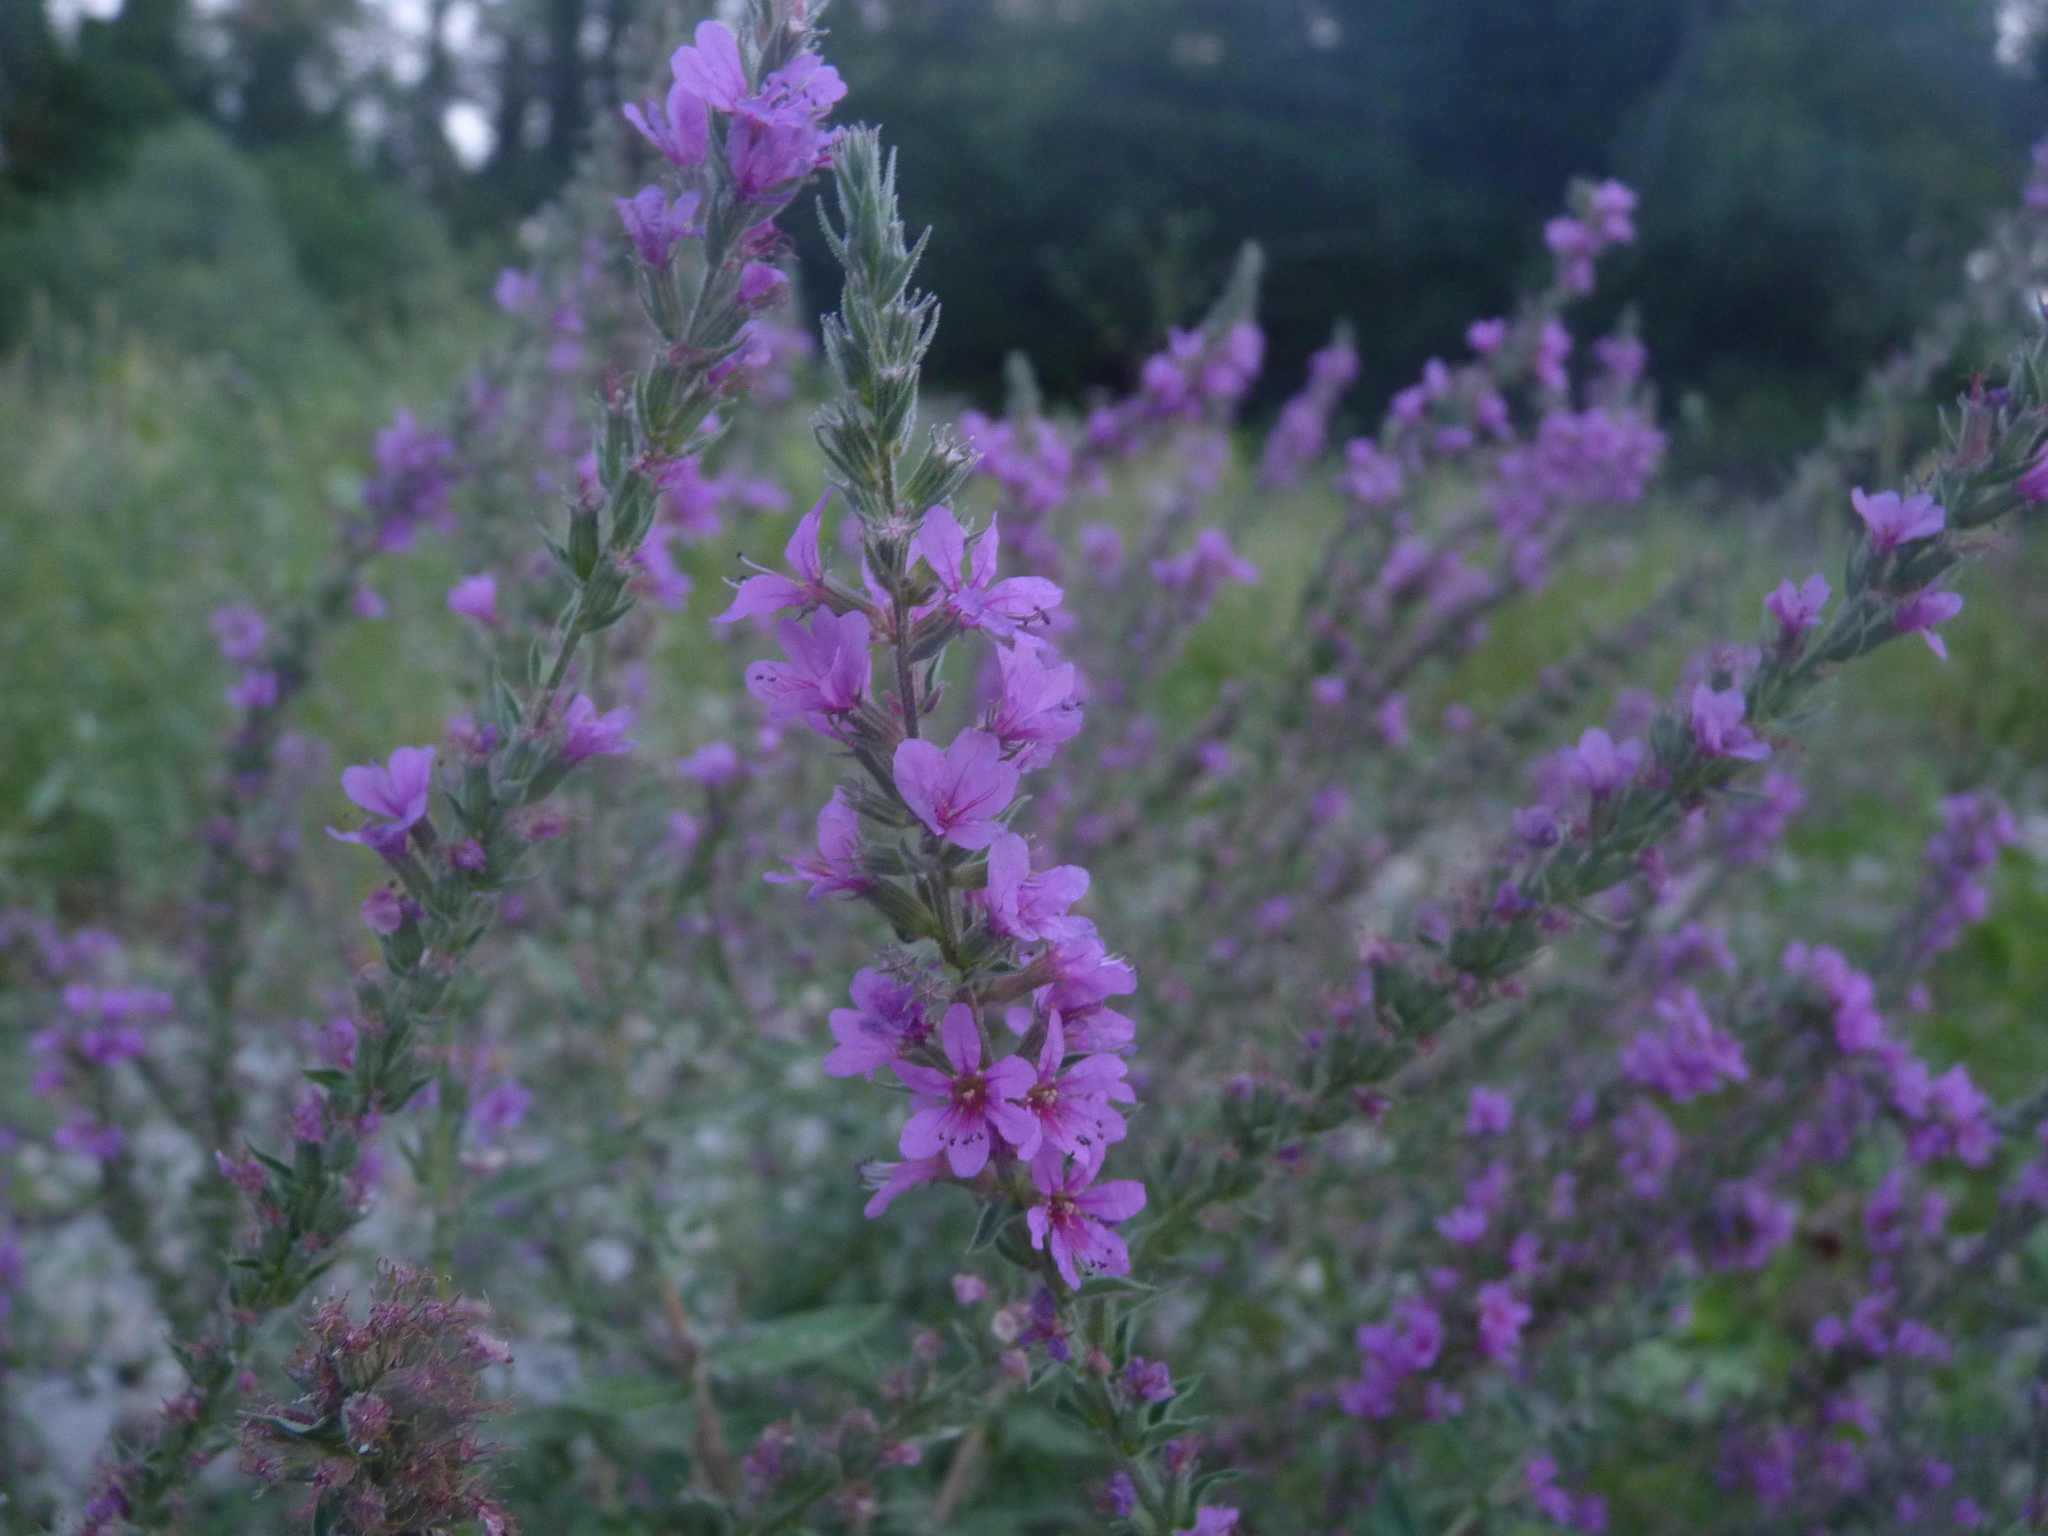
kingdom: Plantae
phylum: Tracheophyta
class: Magnoliopsida
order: Myrtales
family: Lythraceae
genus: Lythrum
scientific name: Lythrum salicaria
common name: Purple loosestrife
